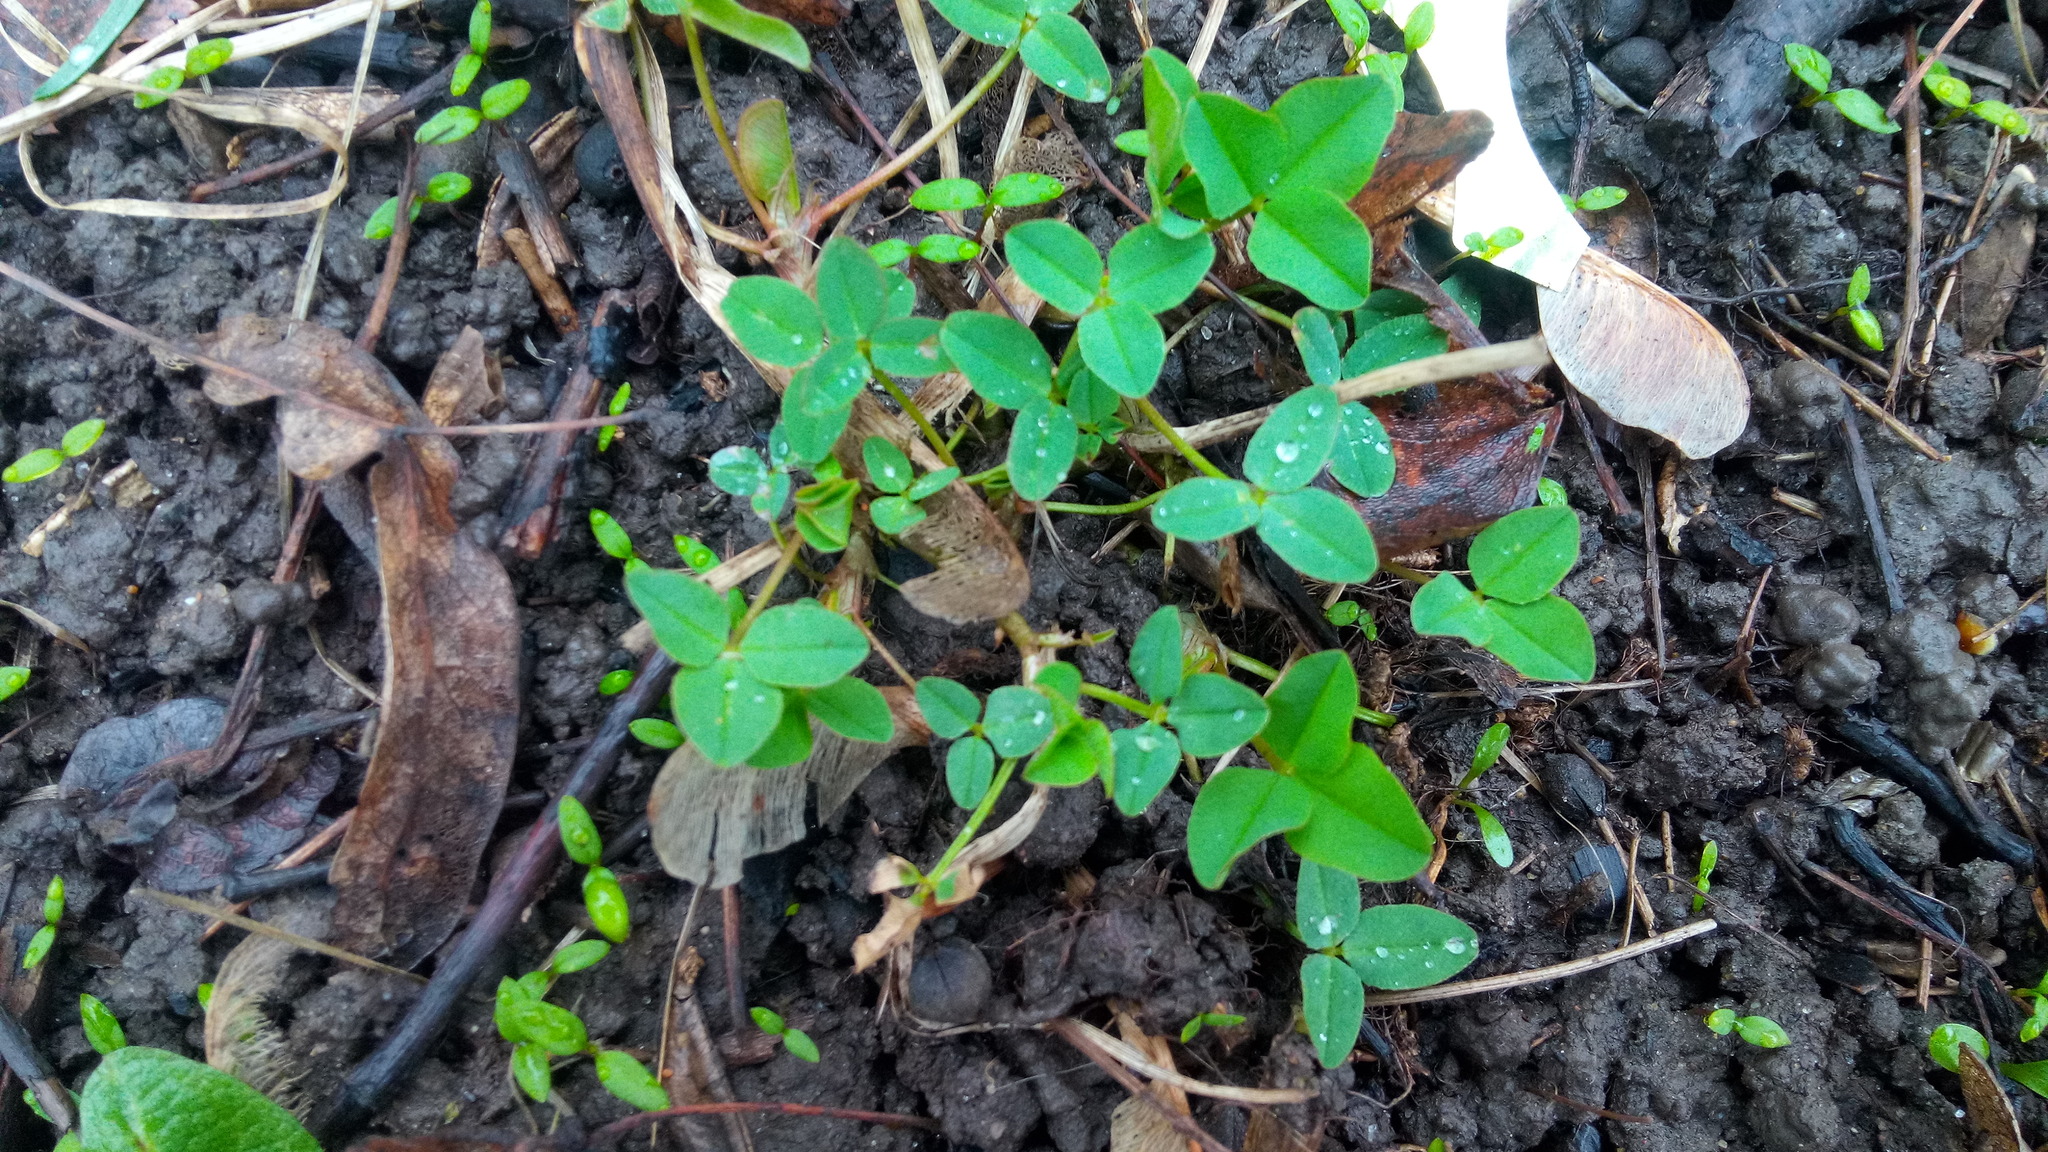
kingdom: Plantae
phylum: Tracheophyta
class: Magnoliopsida
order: Fabales
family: Fabaceae
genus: Trifolium
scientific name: Trifolium pratense
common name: Red clover
